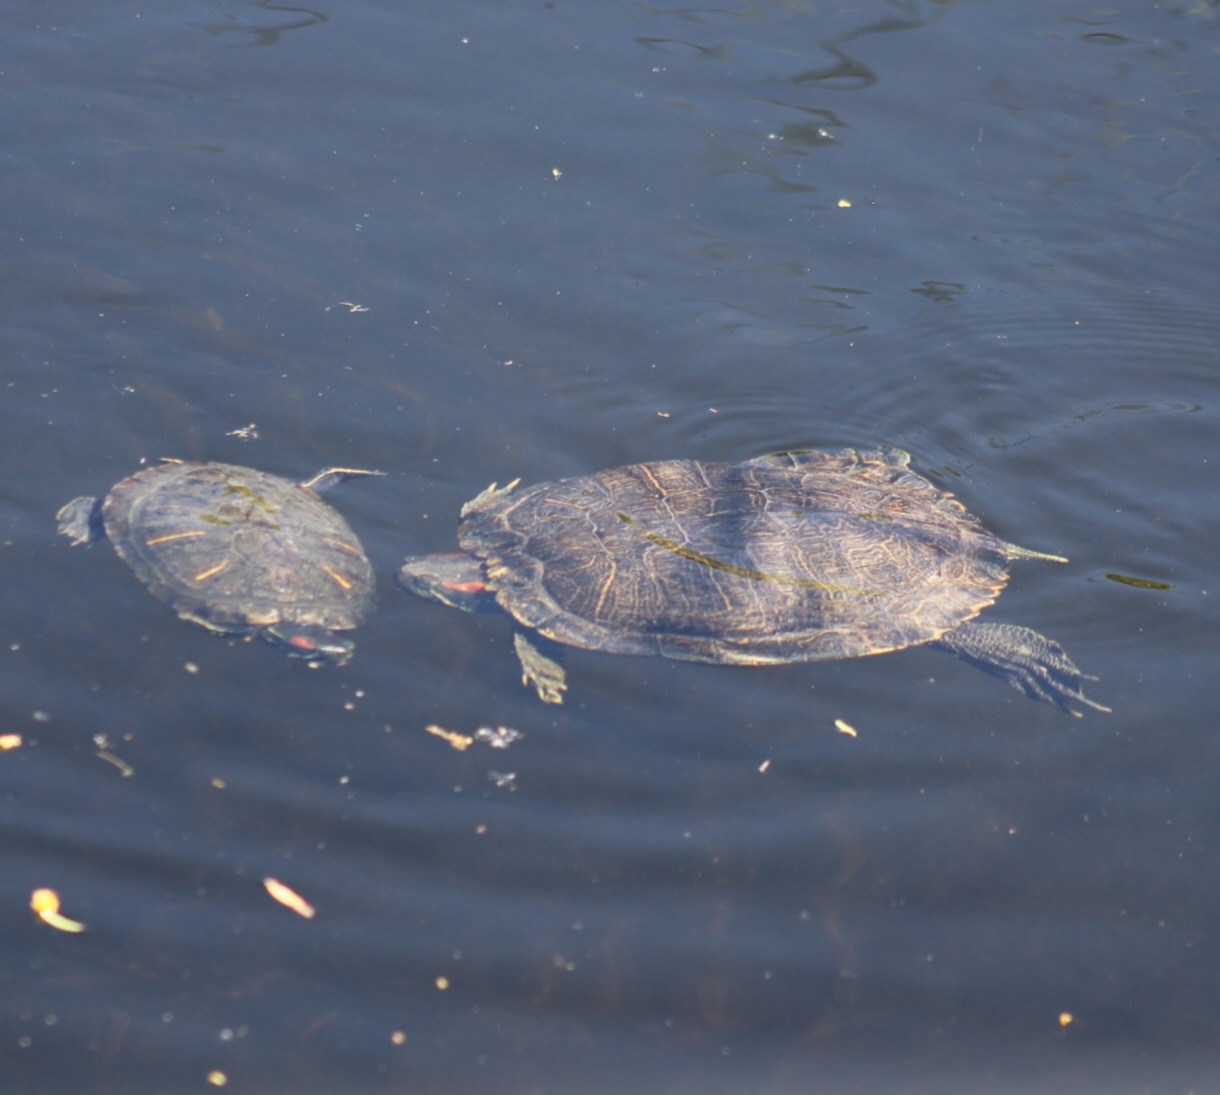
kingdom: Animalia
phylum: Chordata
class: Testudines
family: Emydidae
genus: Trachemys
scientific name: Trachemys scripta
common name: Slider
